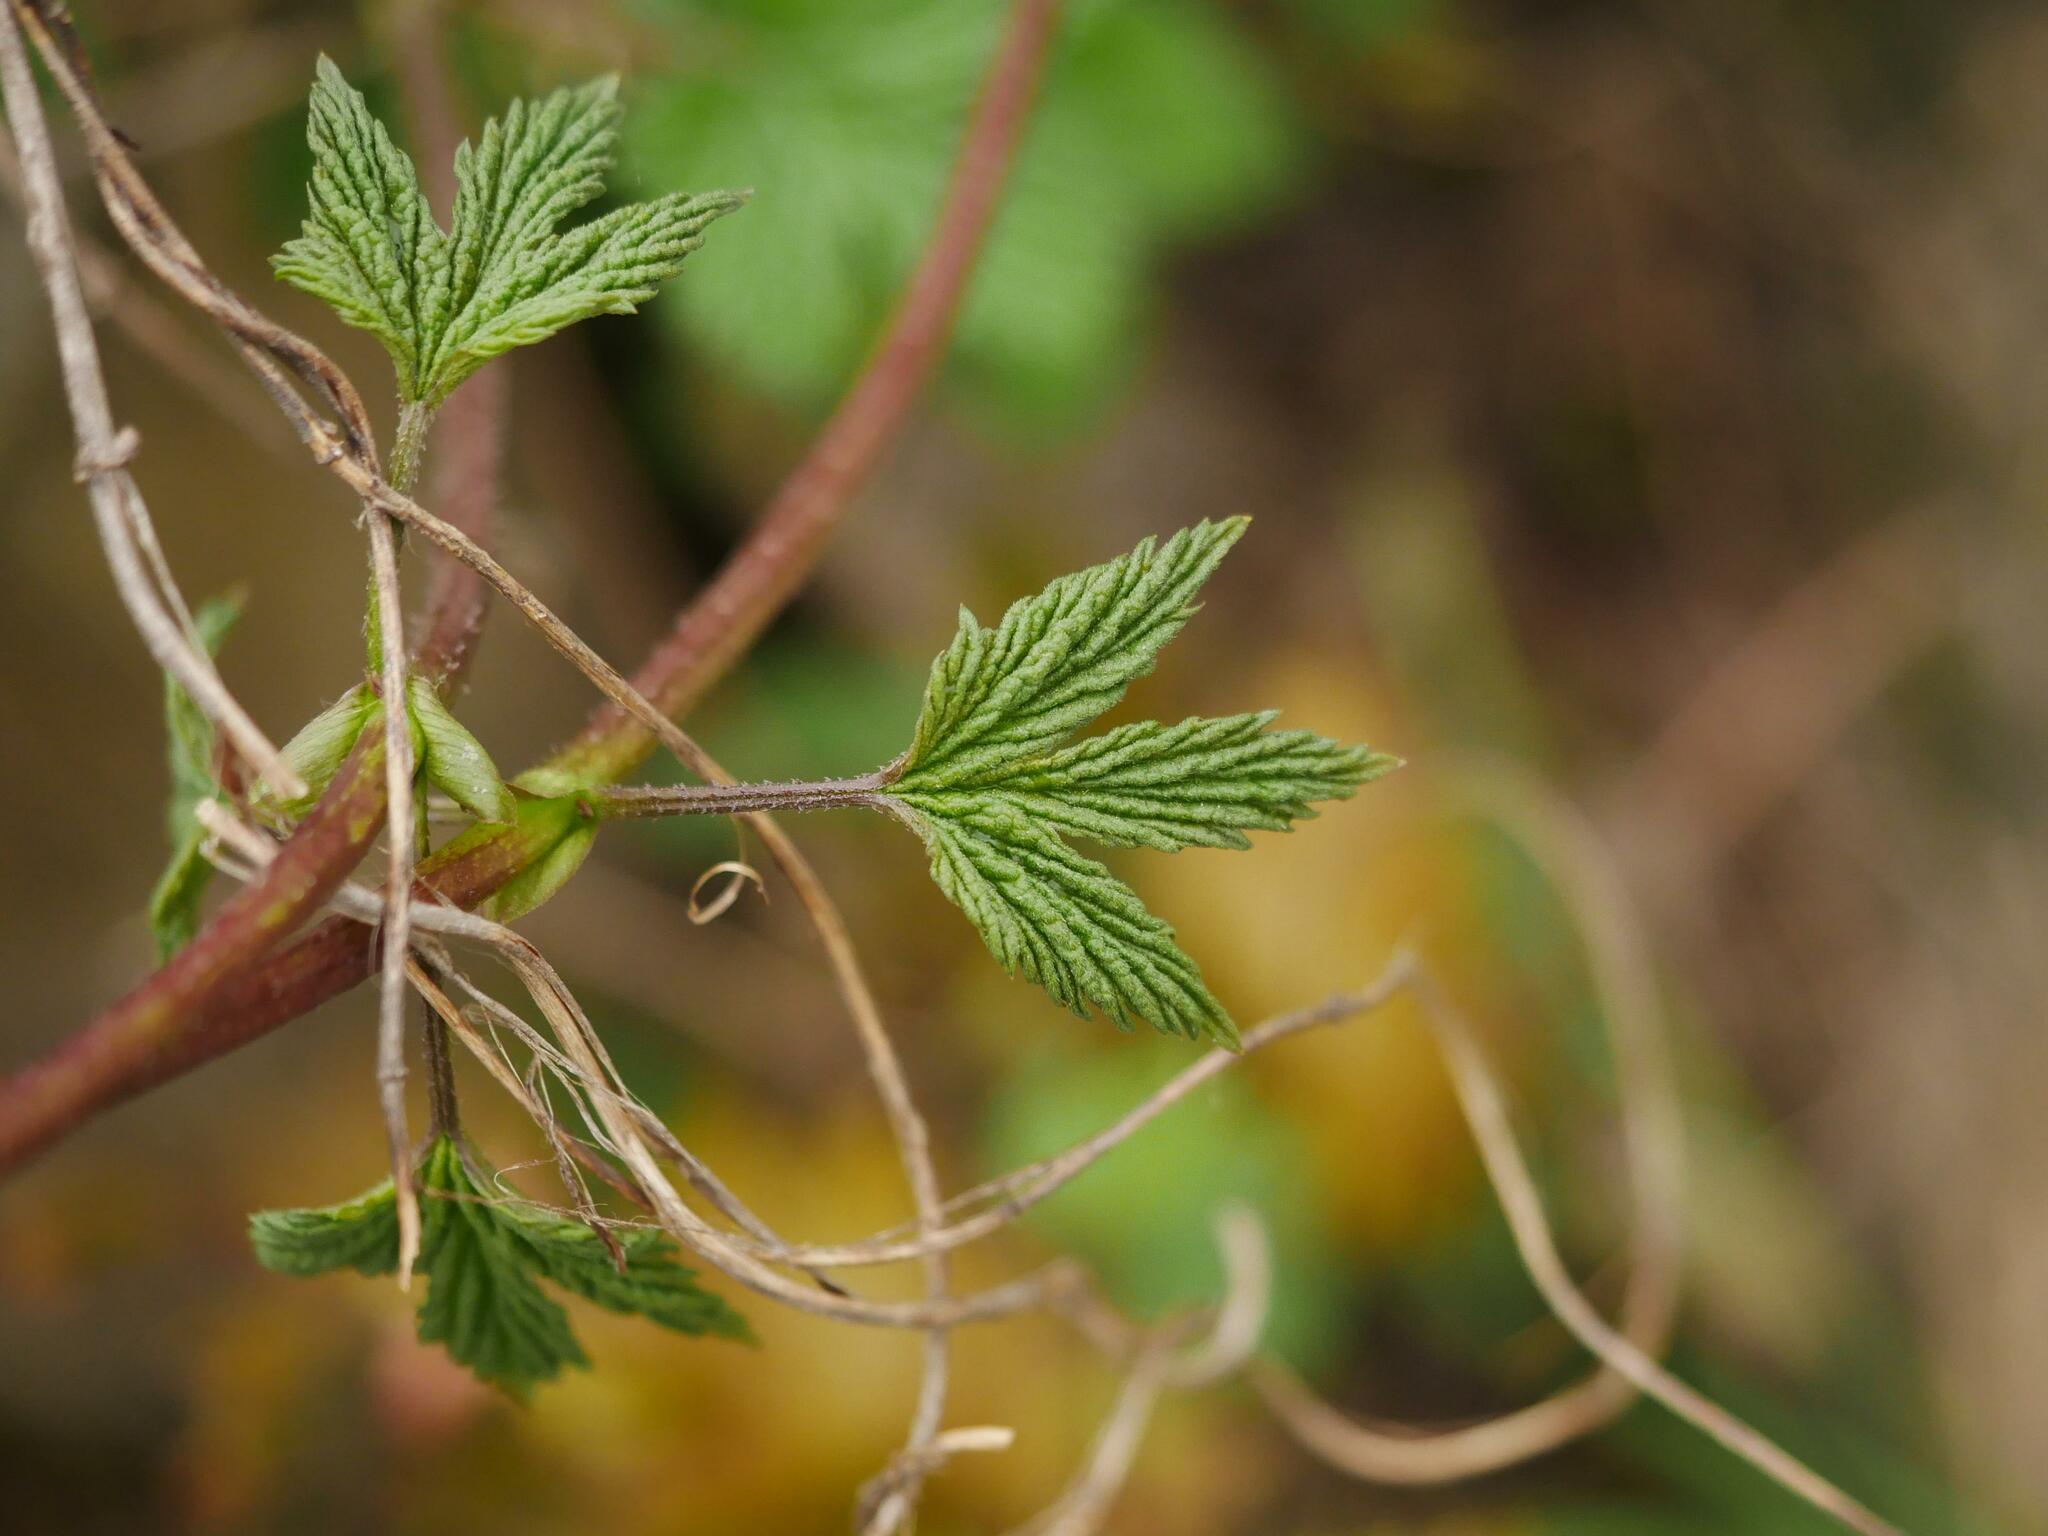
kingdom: Plantae
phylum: Tracheophyta
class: Magnoliopsida
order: Rosales
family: Cannabaceae
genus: Humulus
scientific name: Humulus lupulus
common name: Hop
